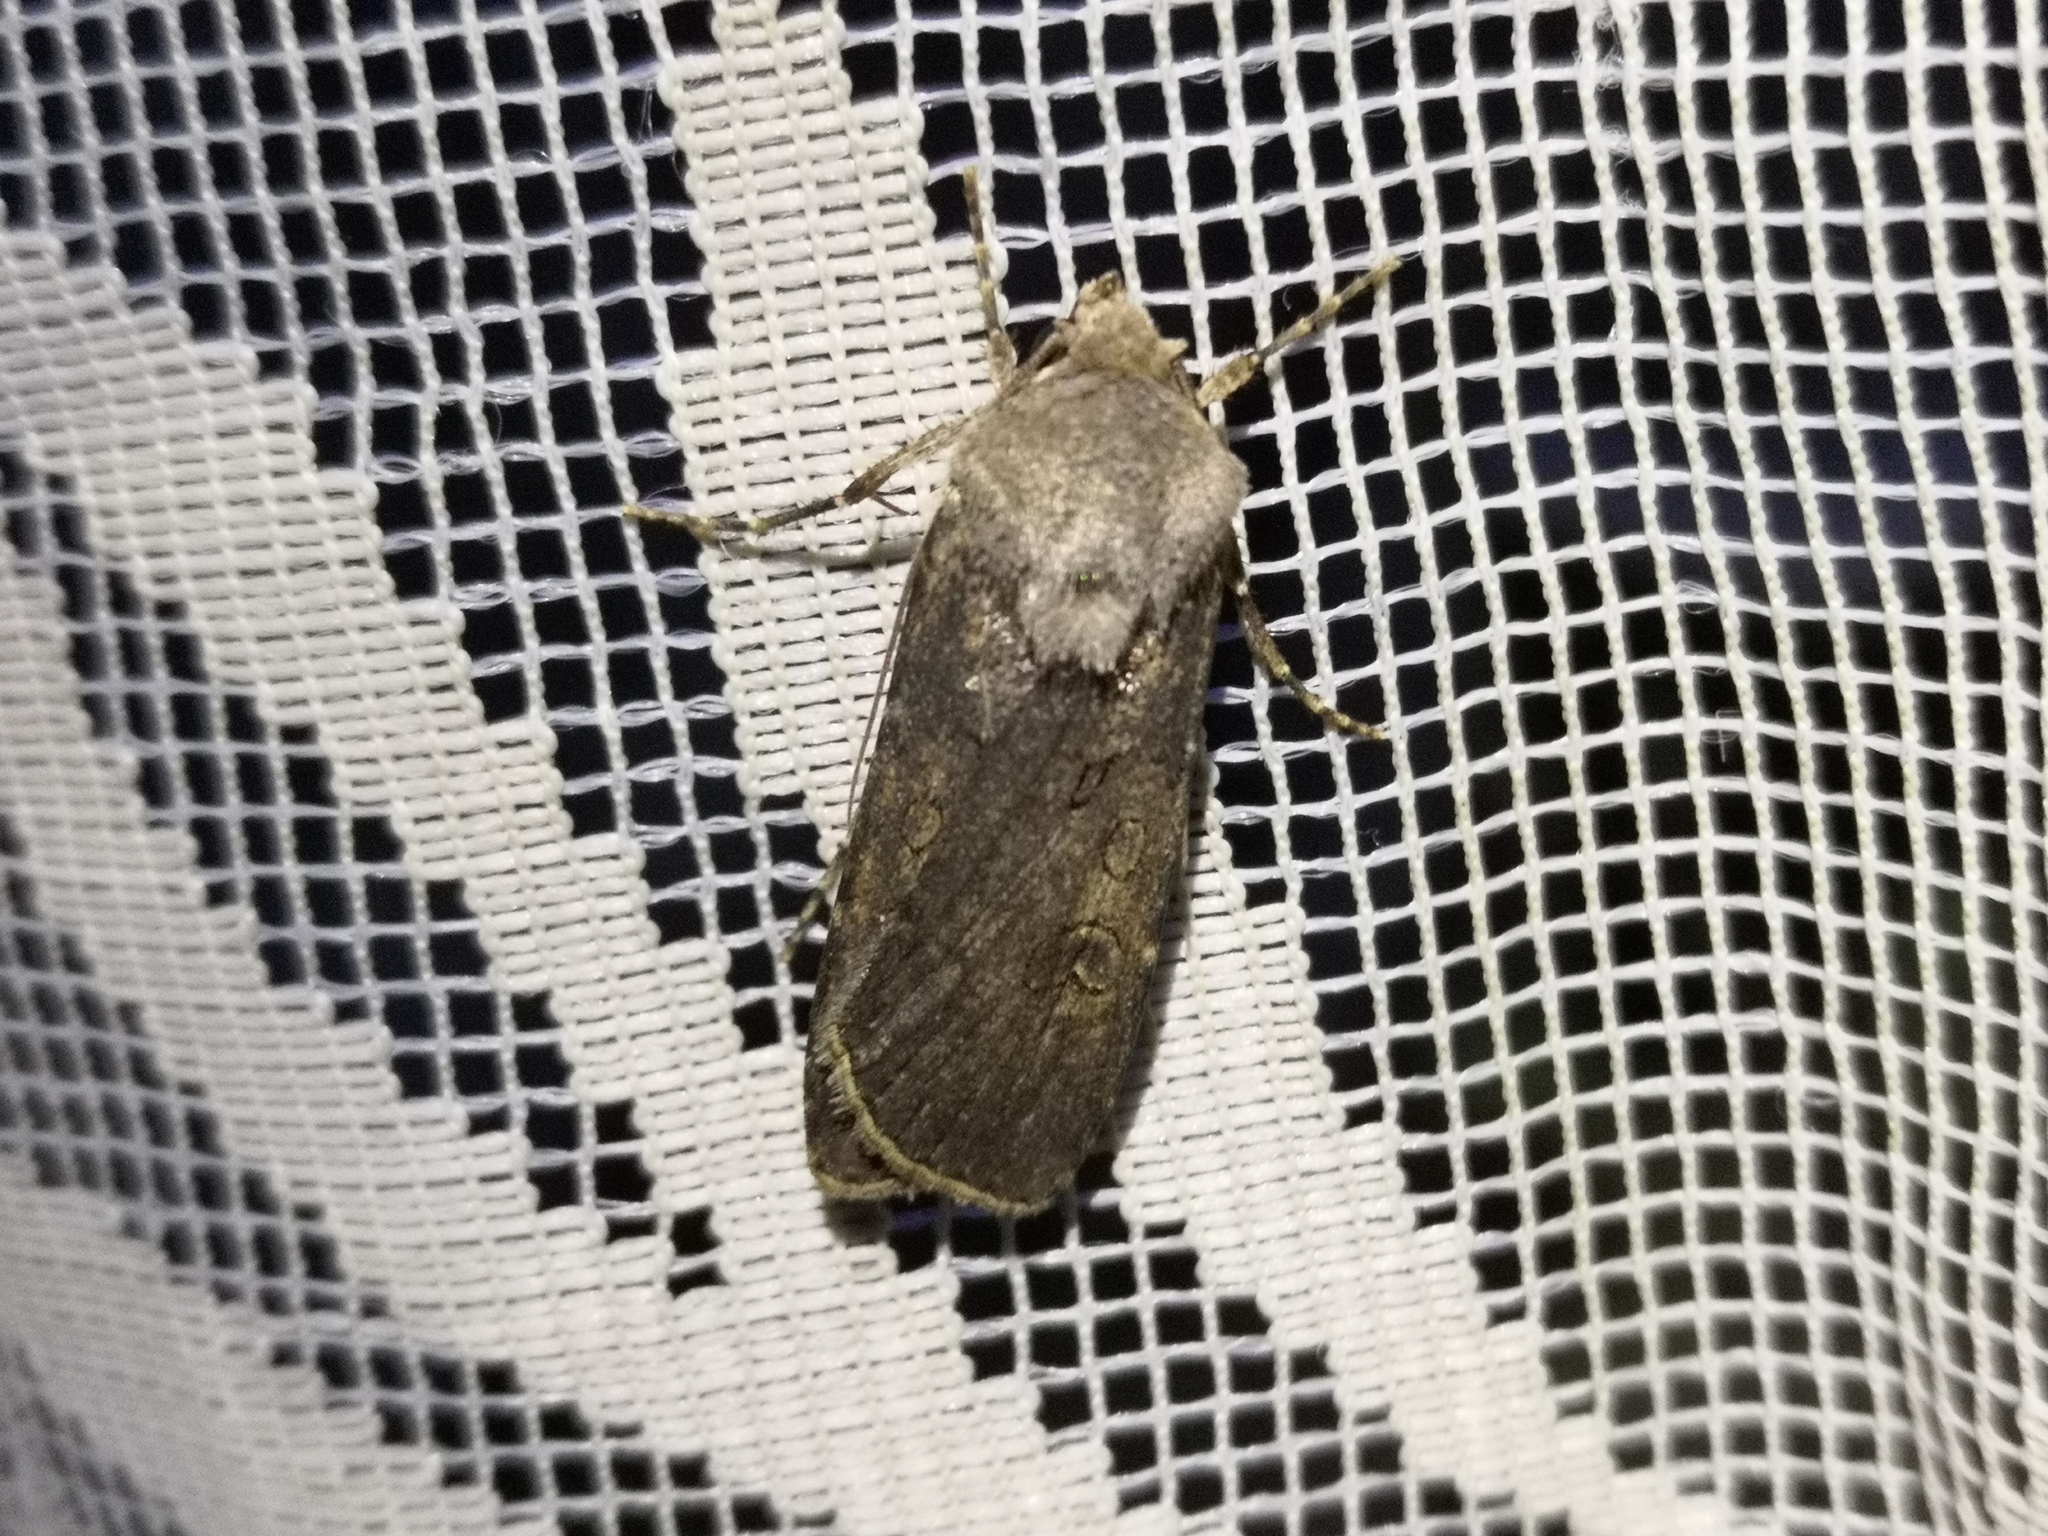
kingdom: Animalia
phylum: Arthropoda
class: Insecta
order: Lepidoptera
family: Noctuidae
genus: Agrotis
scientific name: Agrotis segetum
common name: Turnip moth
